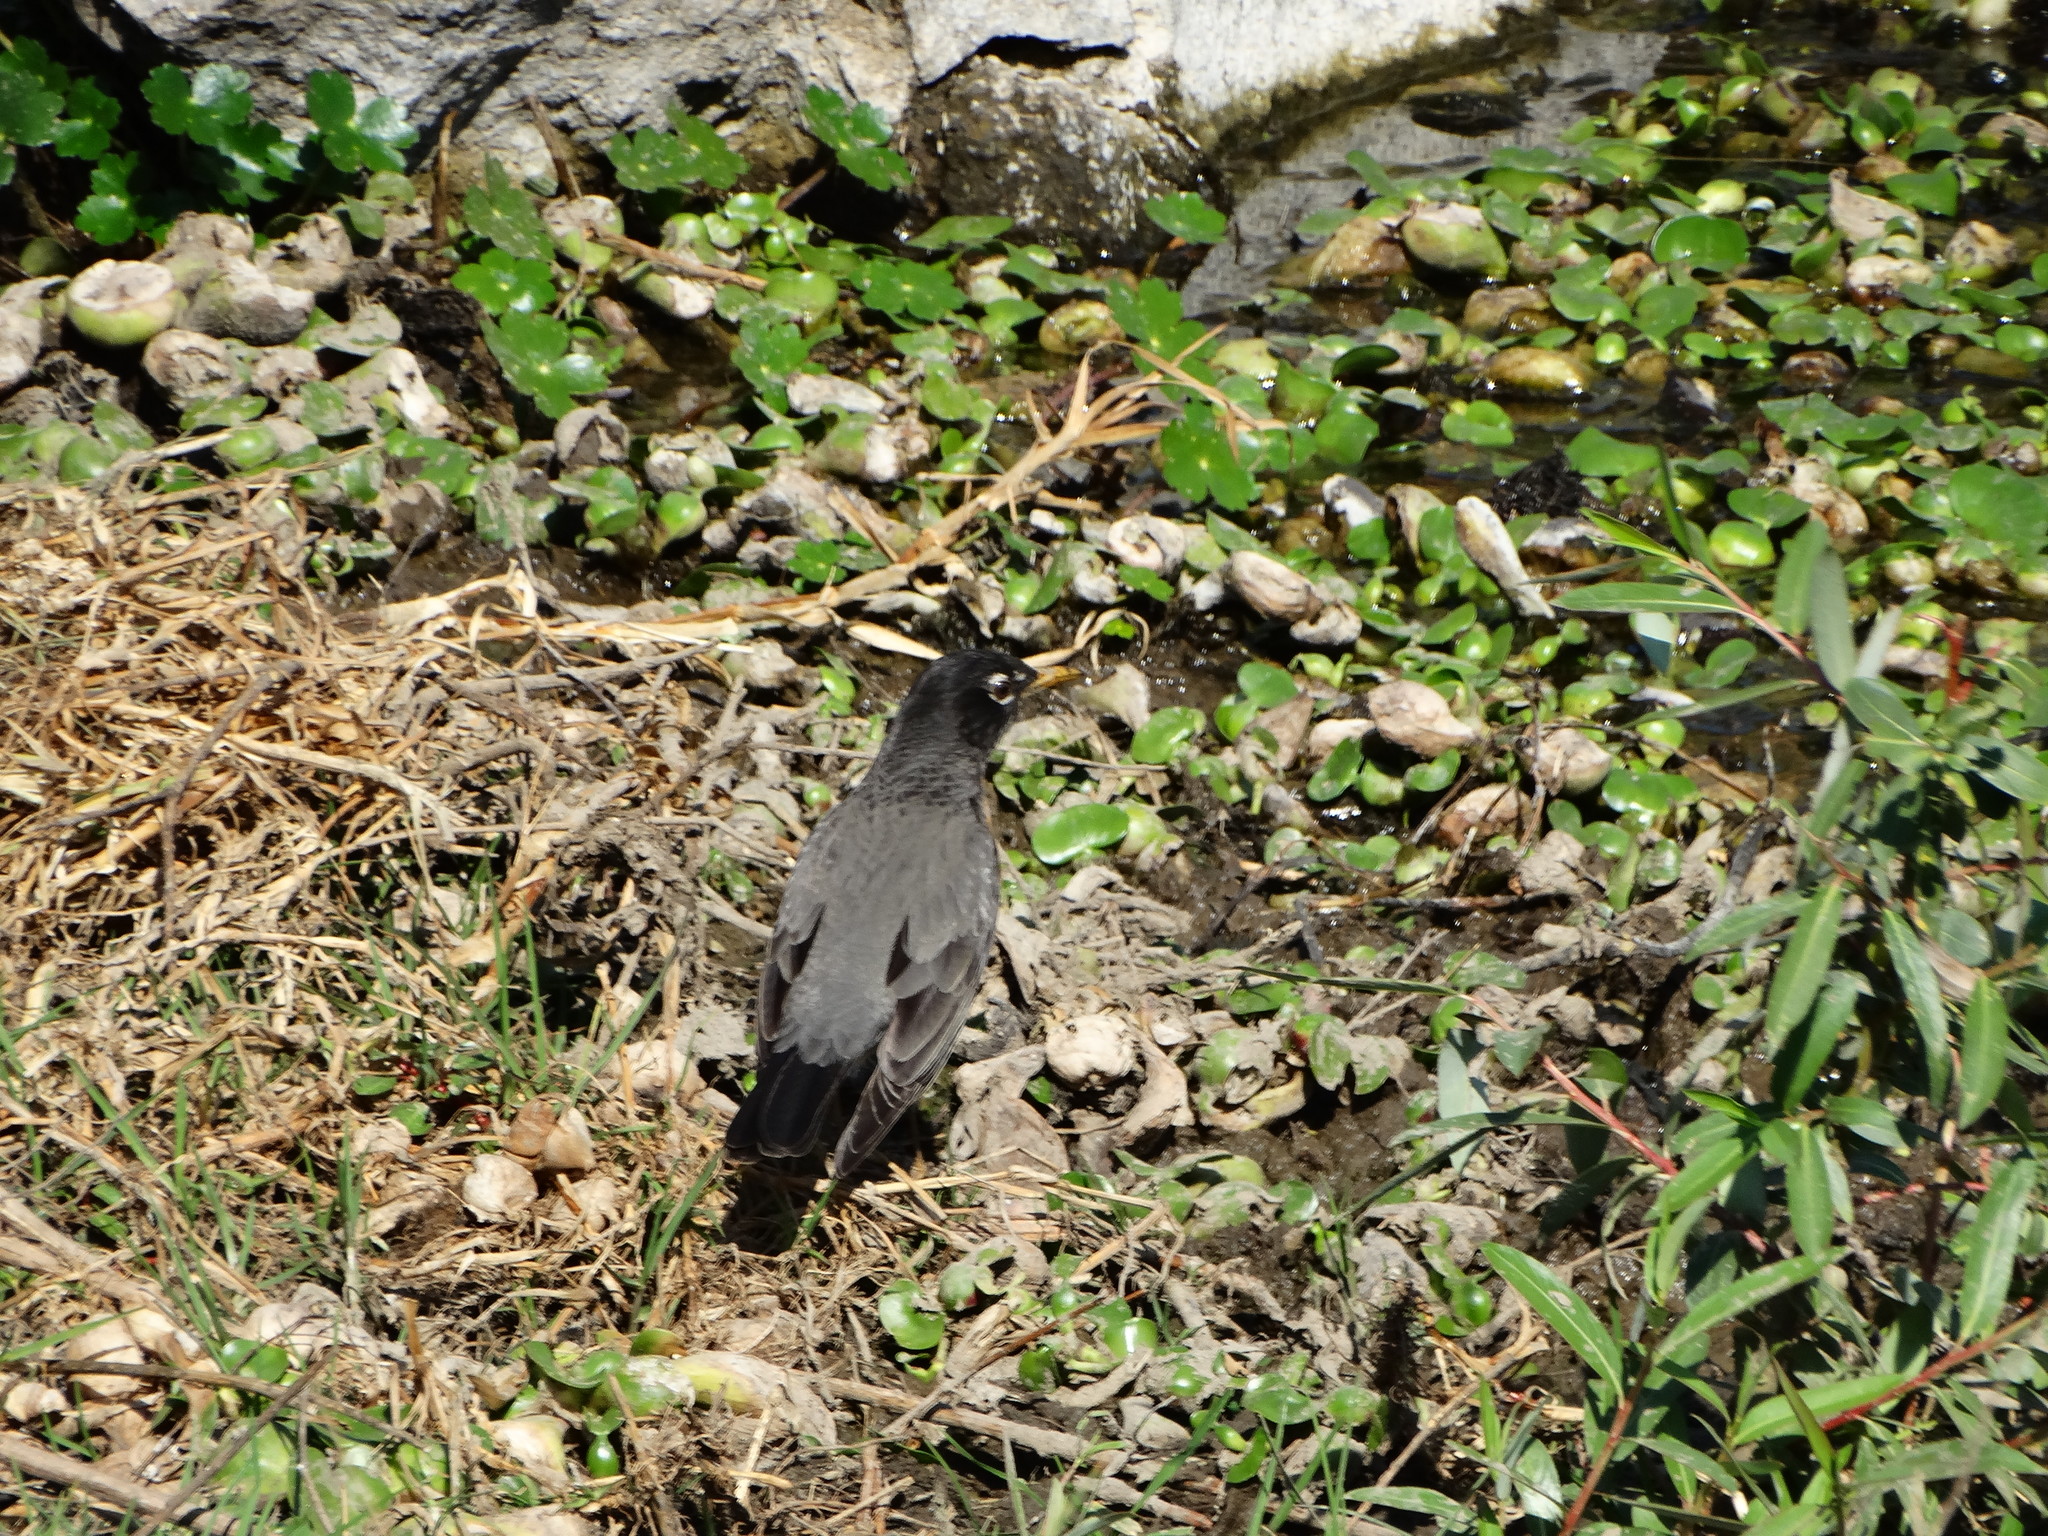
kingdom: Animalia
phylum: Chordata
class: Aves
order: Passeriformes
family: Turdidae
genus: Turdus
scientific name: Turdus migratorius
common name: American robin
